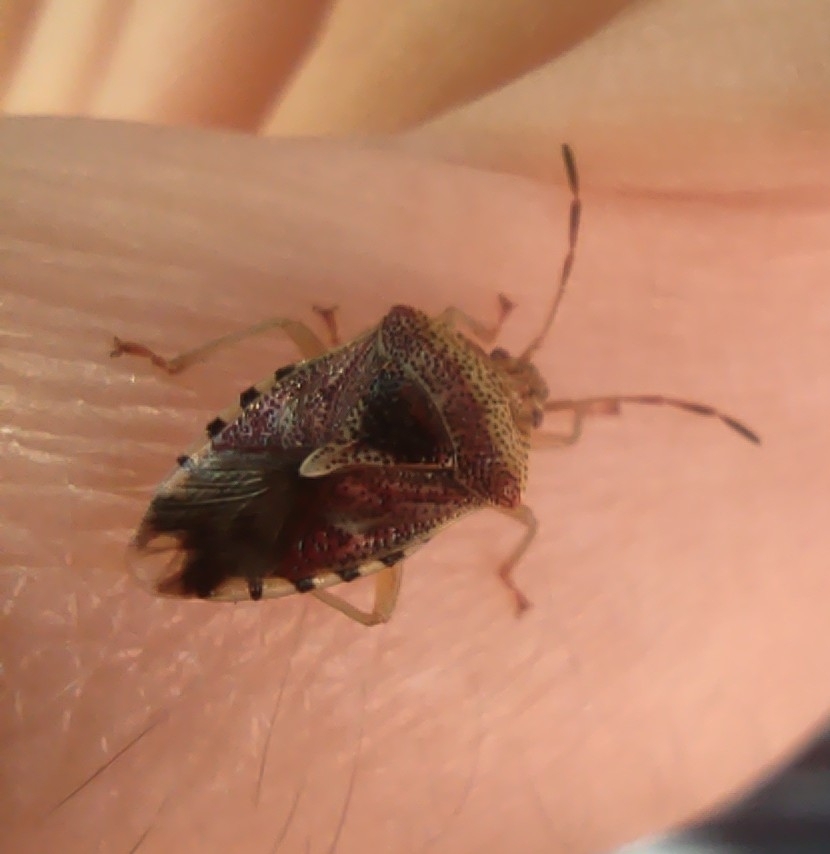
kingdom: Animalia
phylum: Arthropoda
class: Insecta
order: Hemiptera
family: Acanthosomatidae
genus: Elasmucha
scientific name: Elasmucha grisea
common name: Parent bug
